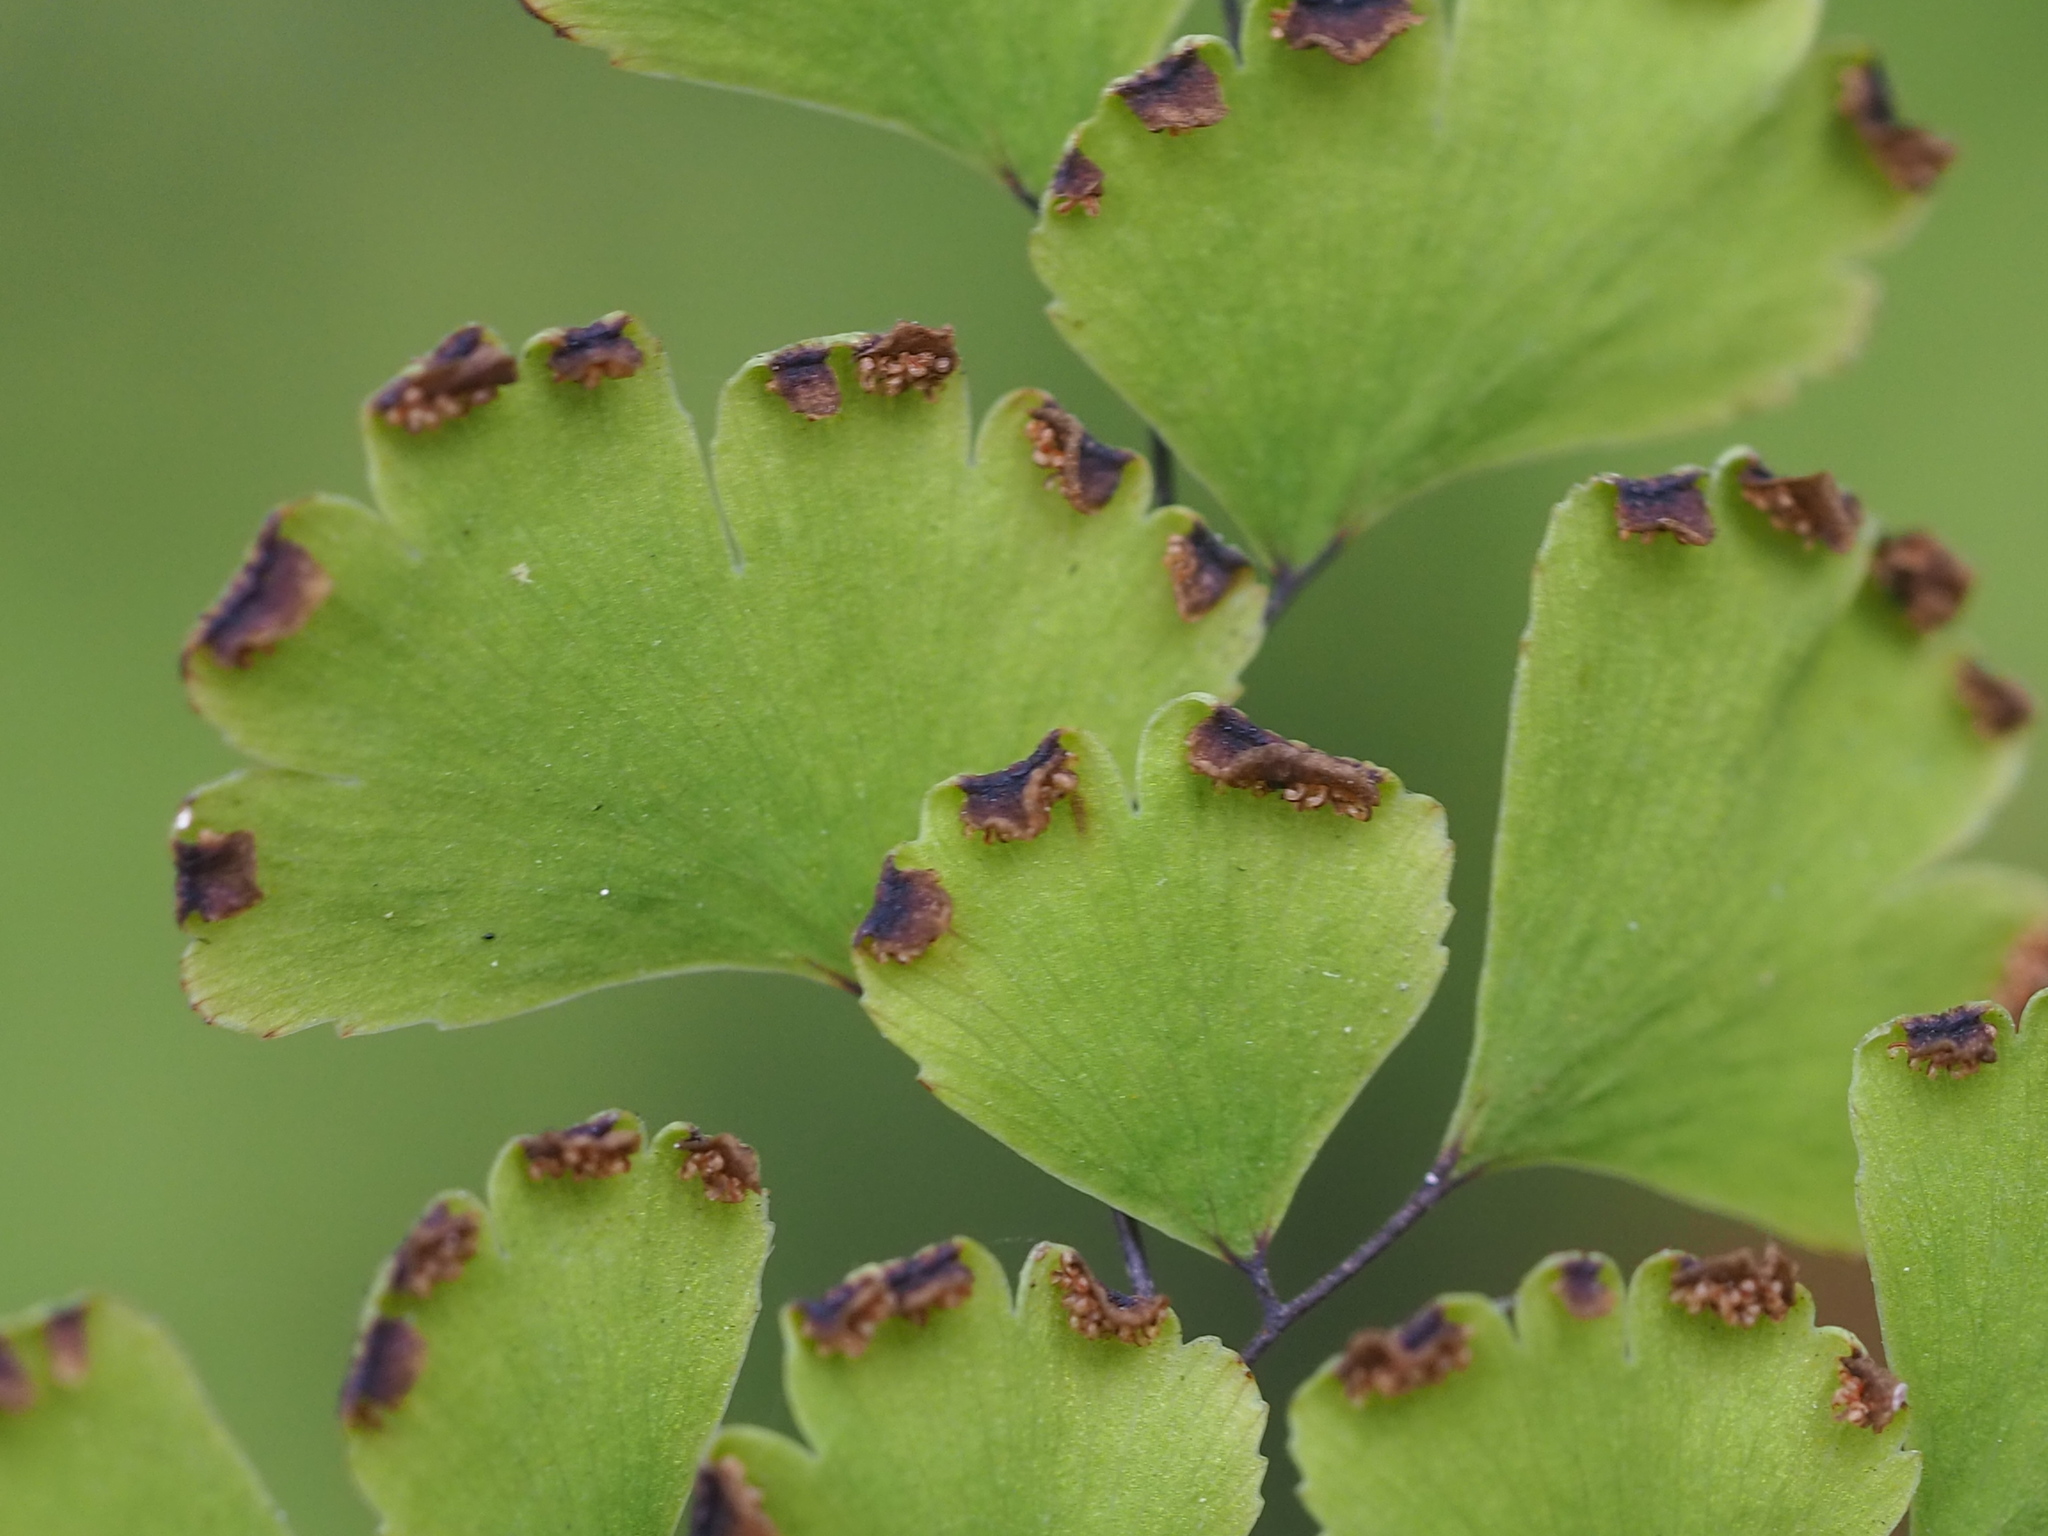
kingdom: Plantae
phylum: Tracheophyta
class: Polypodiopsida
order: Polypodiales
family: Pteridaceae
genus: Adiantum
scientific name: Adiantum capillus-veneris
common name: Maidenhair fern
